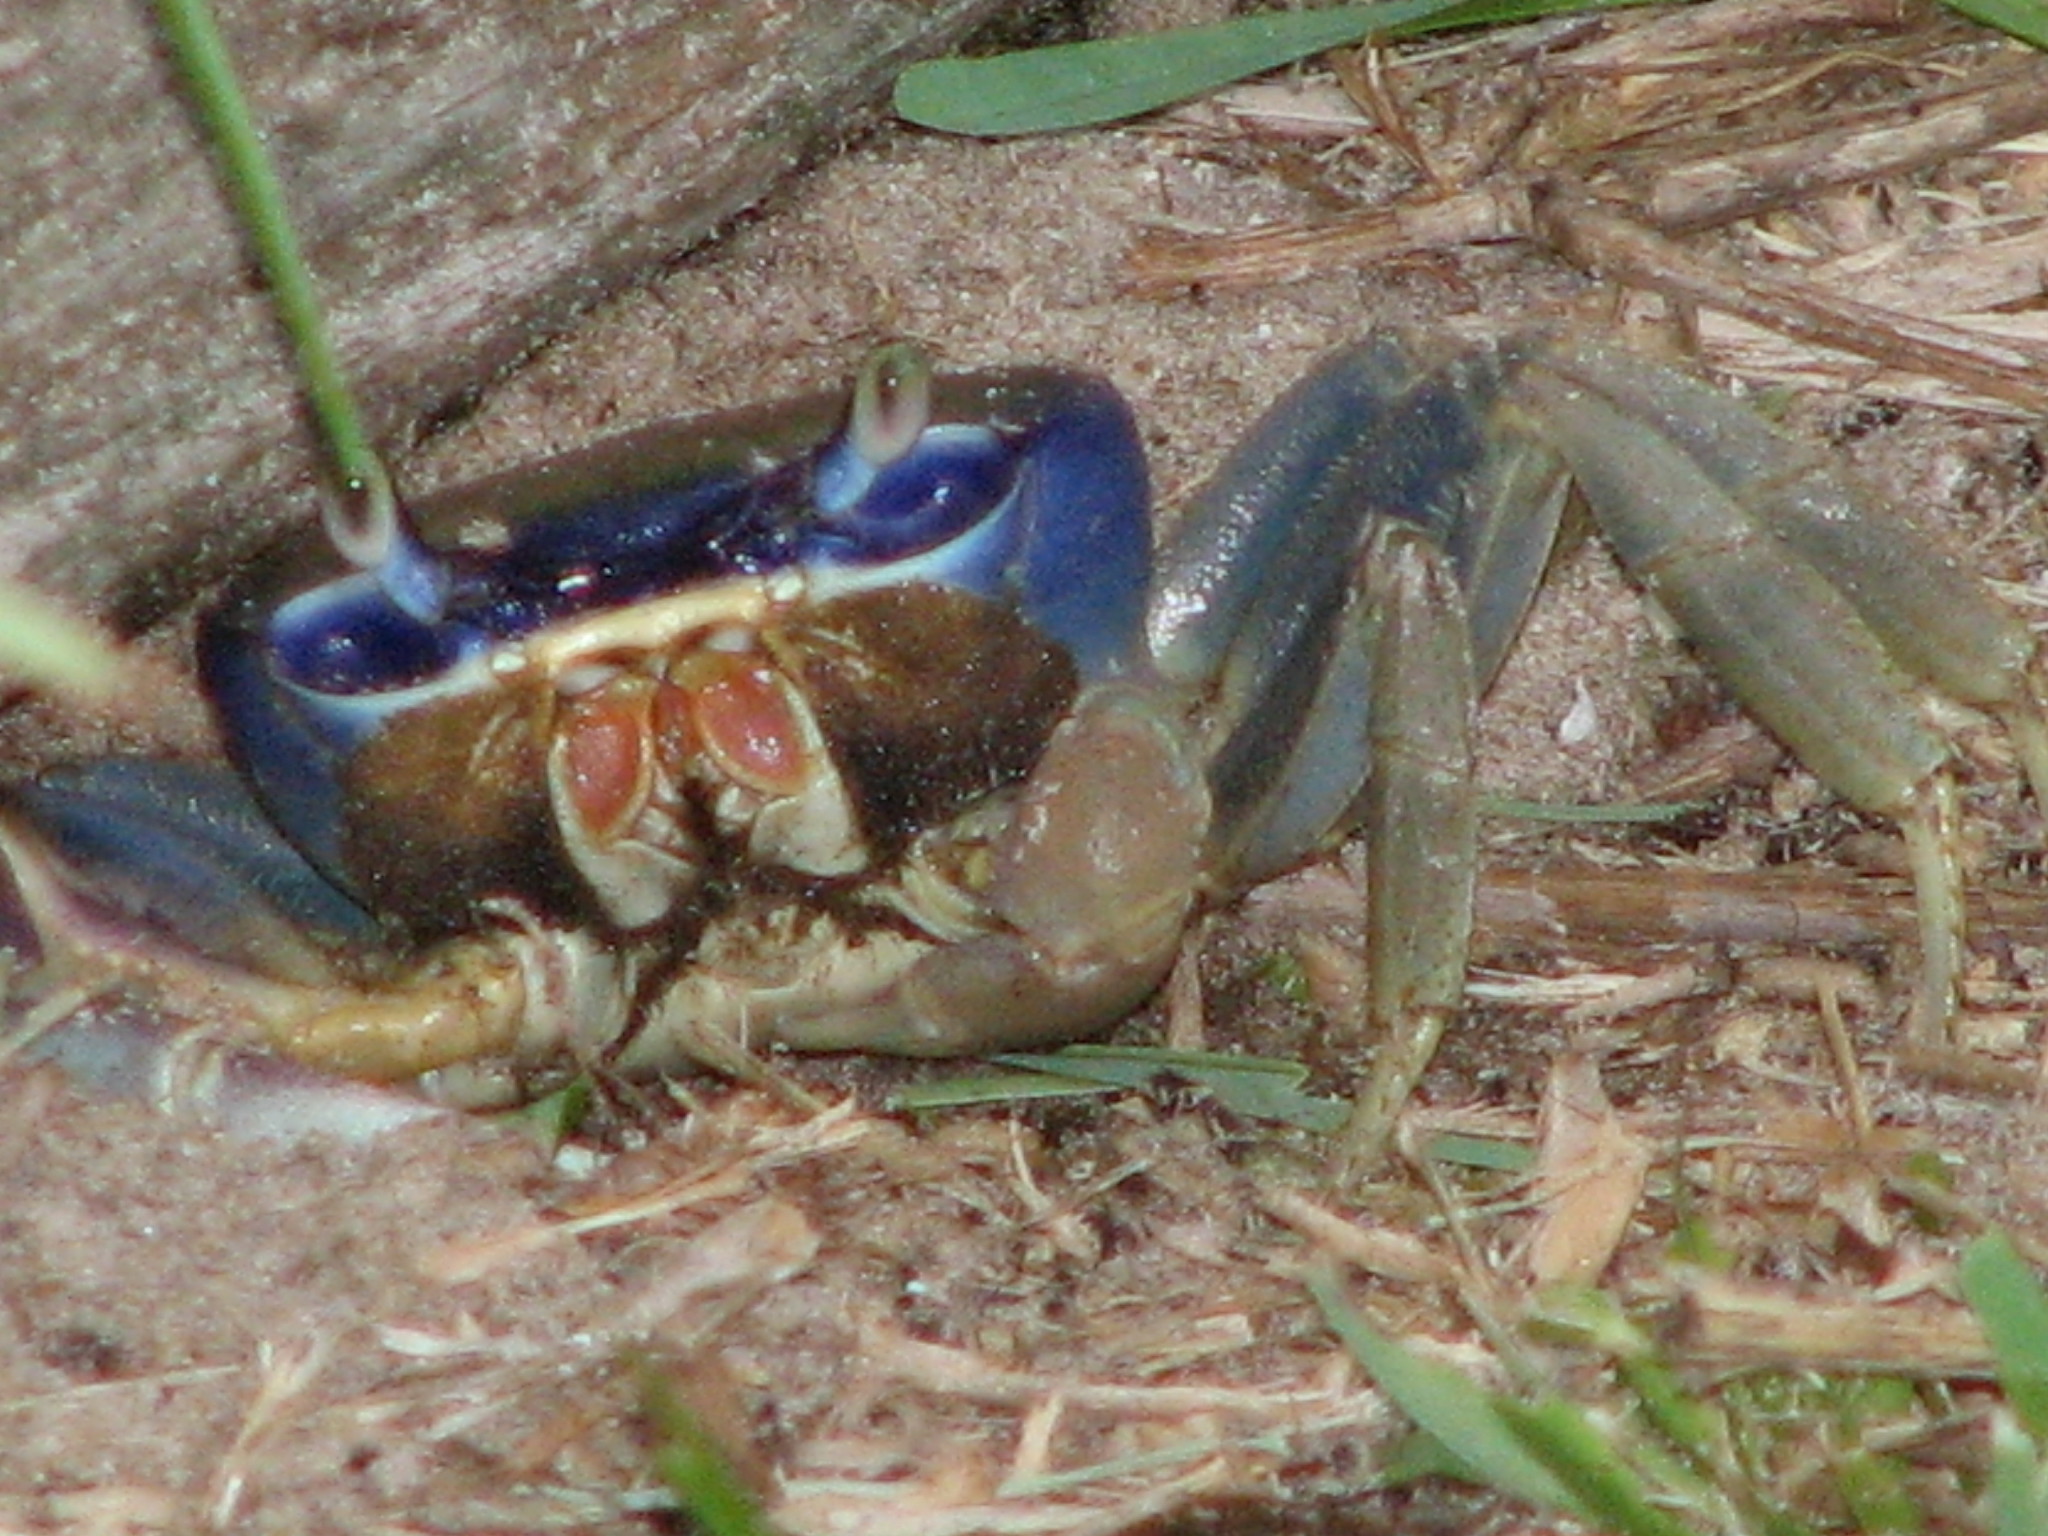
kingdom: Animalia
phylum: Arthropoda
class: Malacostraca
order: Decapoda
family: Gecarcinidae
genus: Cardisoma
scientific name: Cardisoma guanhumi
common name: Great land crab
